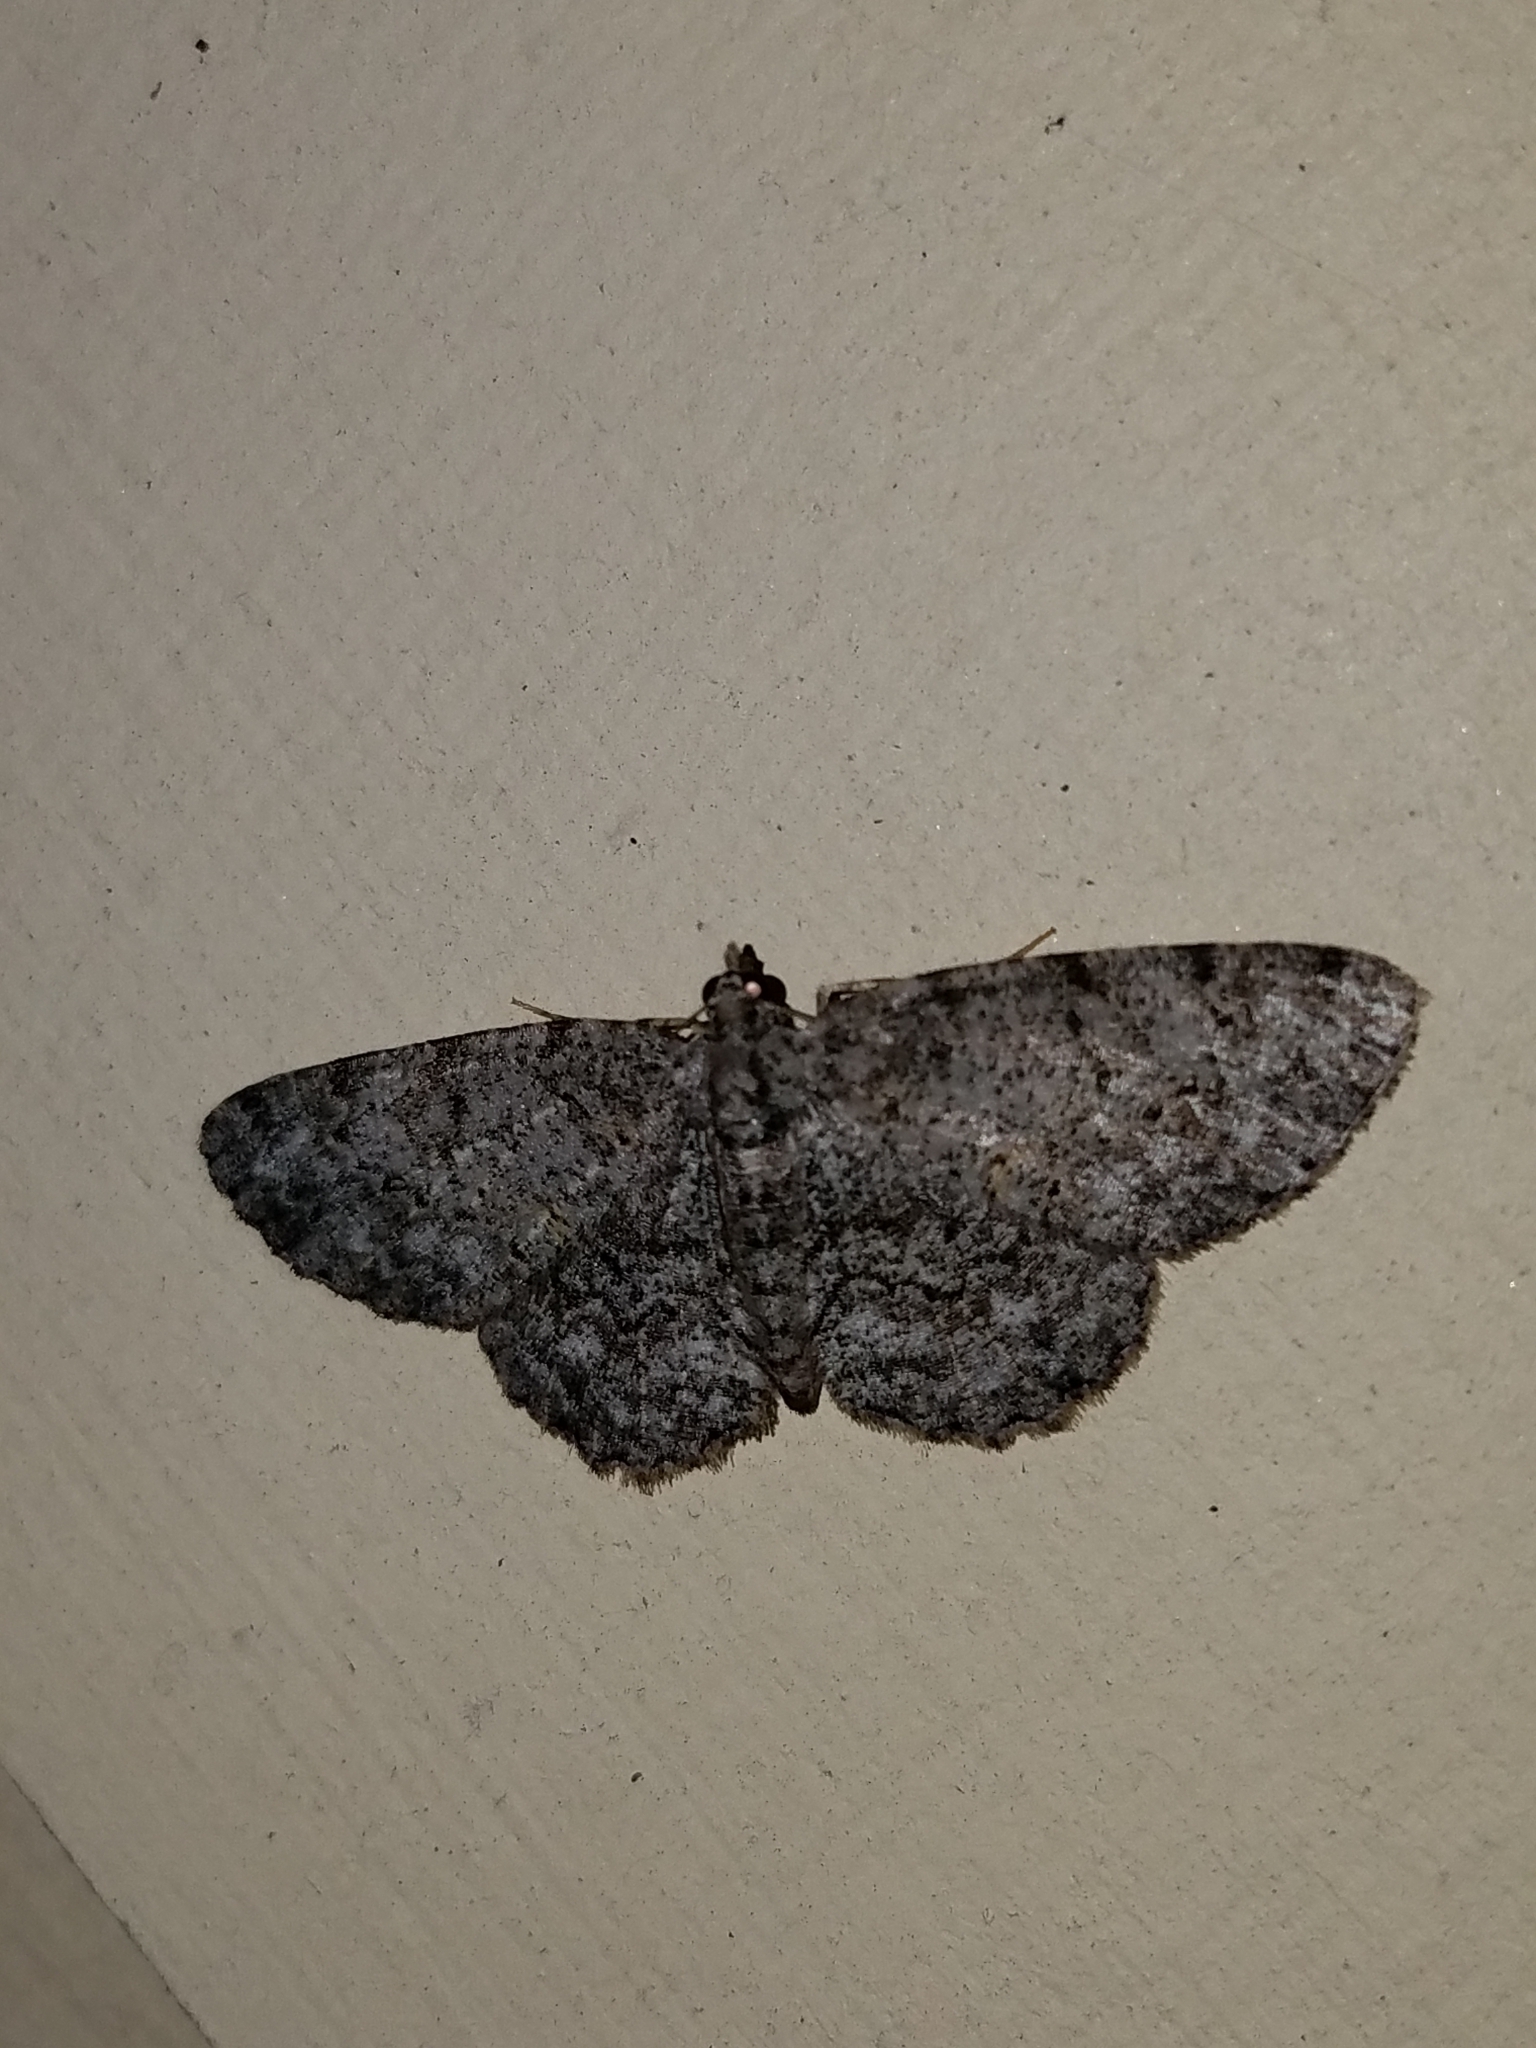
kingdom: Animalia
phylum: Arthropoda
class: Insecta
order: Lepidoptera
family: Geometridae
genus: Protoboarmia
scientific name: Protoboarmia porcelaria
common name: Porcelain gray
